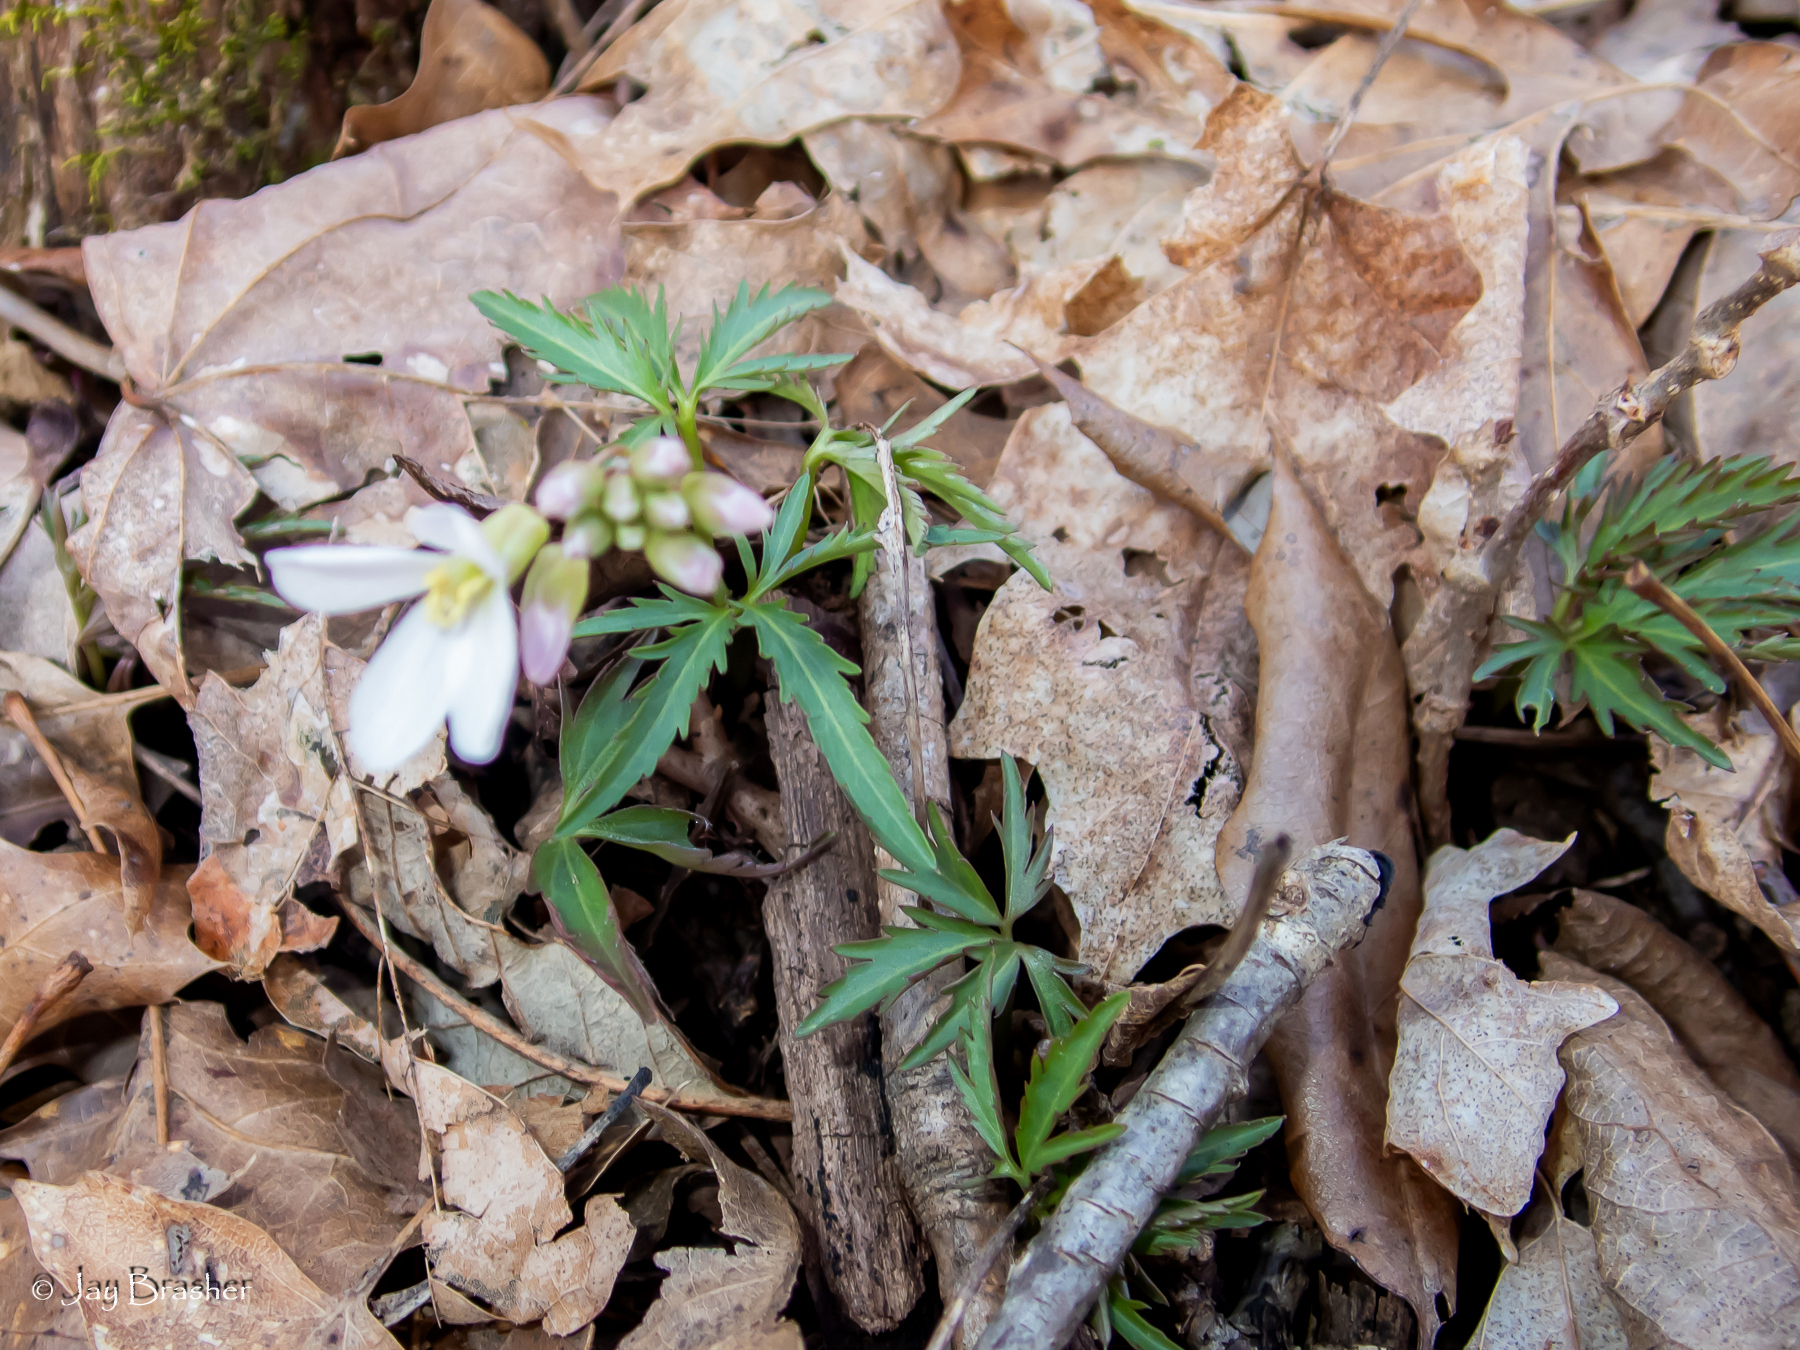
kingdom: Plantae
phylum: Tracheophyta
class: Magnoliopsida
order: Brassicales
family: Brassicaceae
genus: Cardamine
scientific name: Cardamine concatenata
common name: Cut-leaf toothcup
